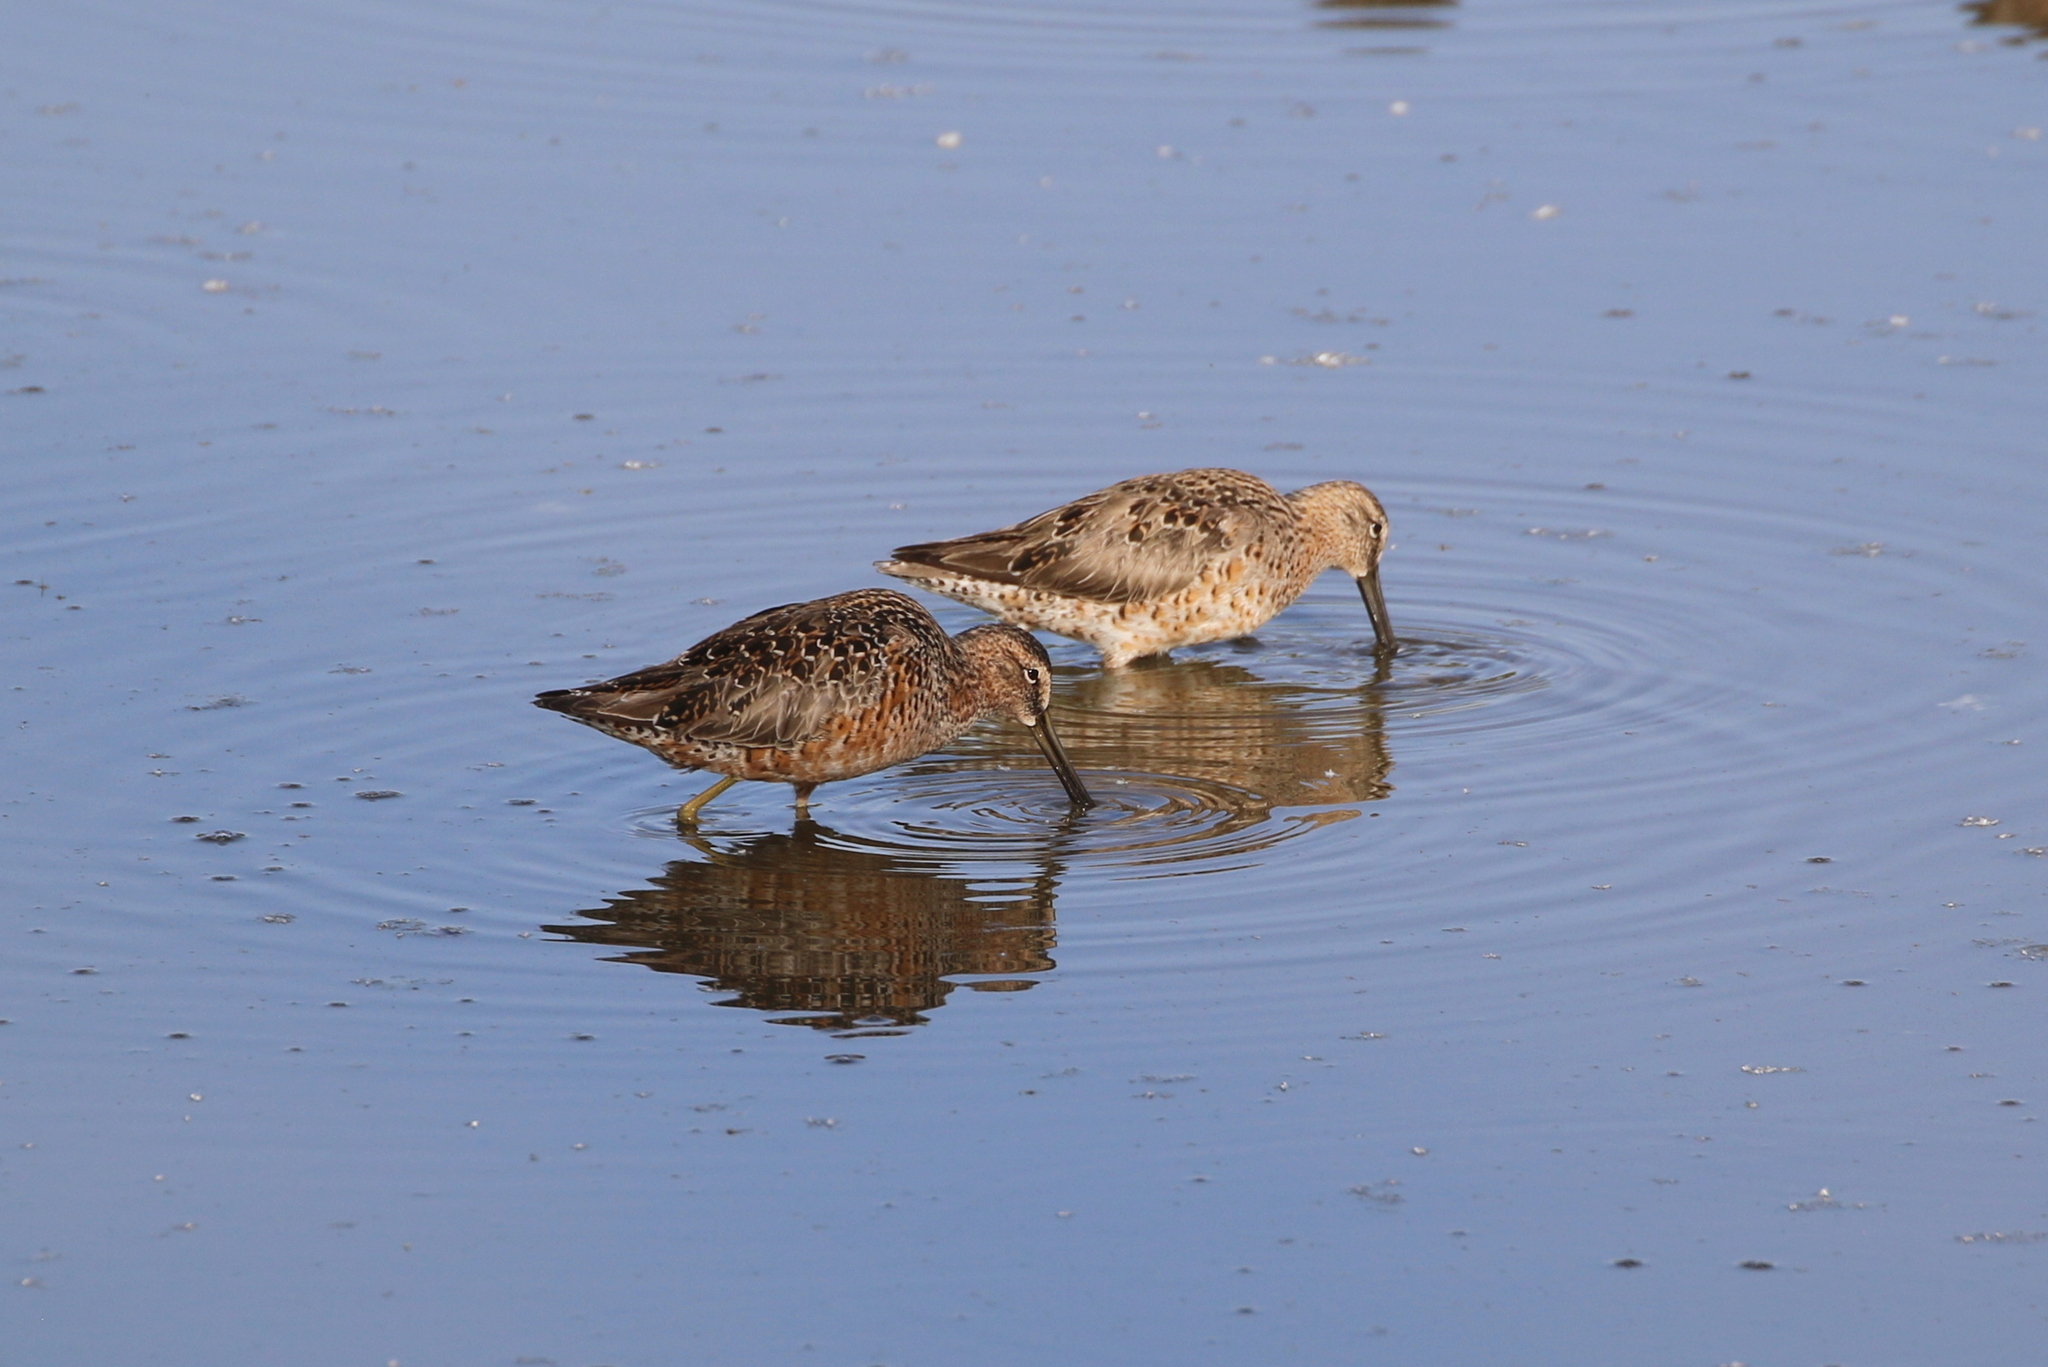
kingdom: Animalia
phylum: Chordata
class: Aves
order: Charadriiformes
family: Scolopacidae
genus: Limnodromus
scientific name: Limnodromus scolopaceus
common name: Long-billed dowitcher
